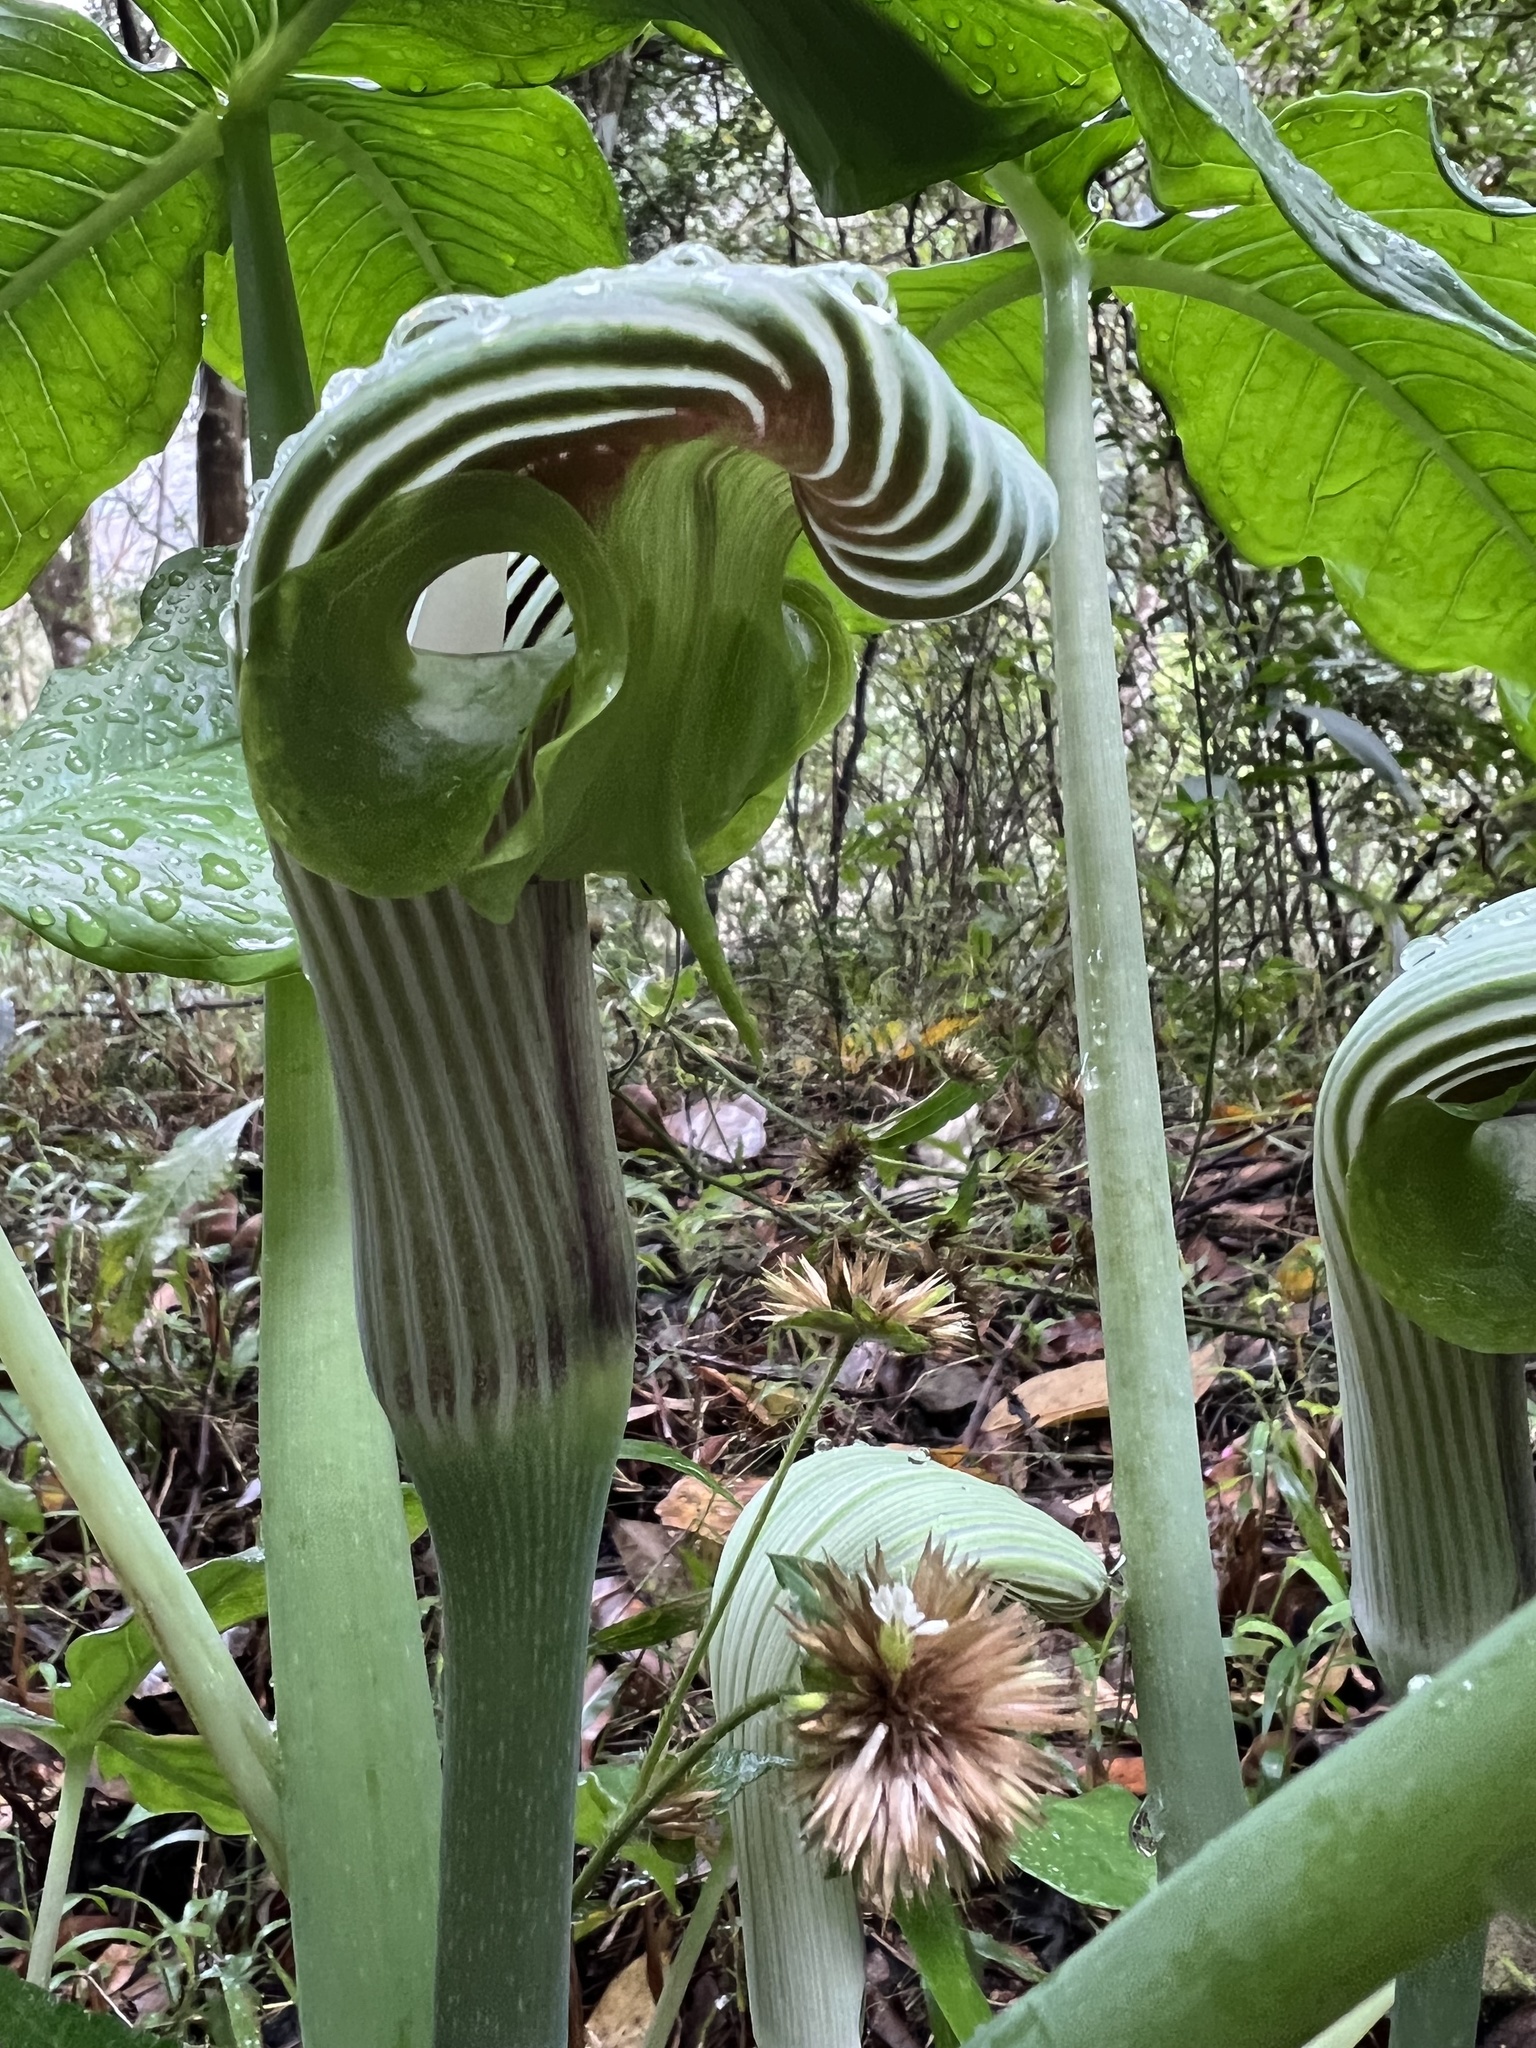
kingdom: Plantae
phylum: Tracheophyta
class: Liliopsida
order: Alismatales
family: Araceae
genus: Arisaema
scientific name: Arisaema ringens
